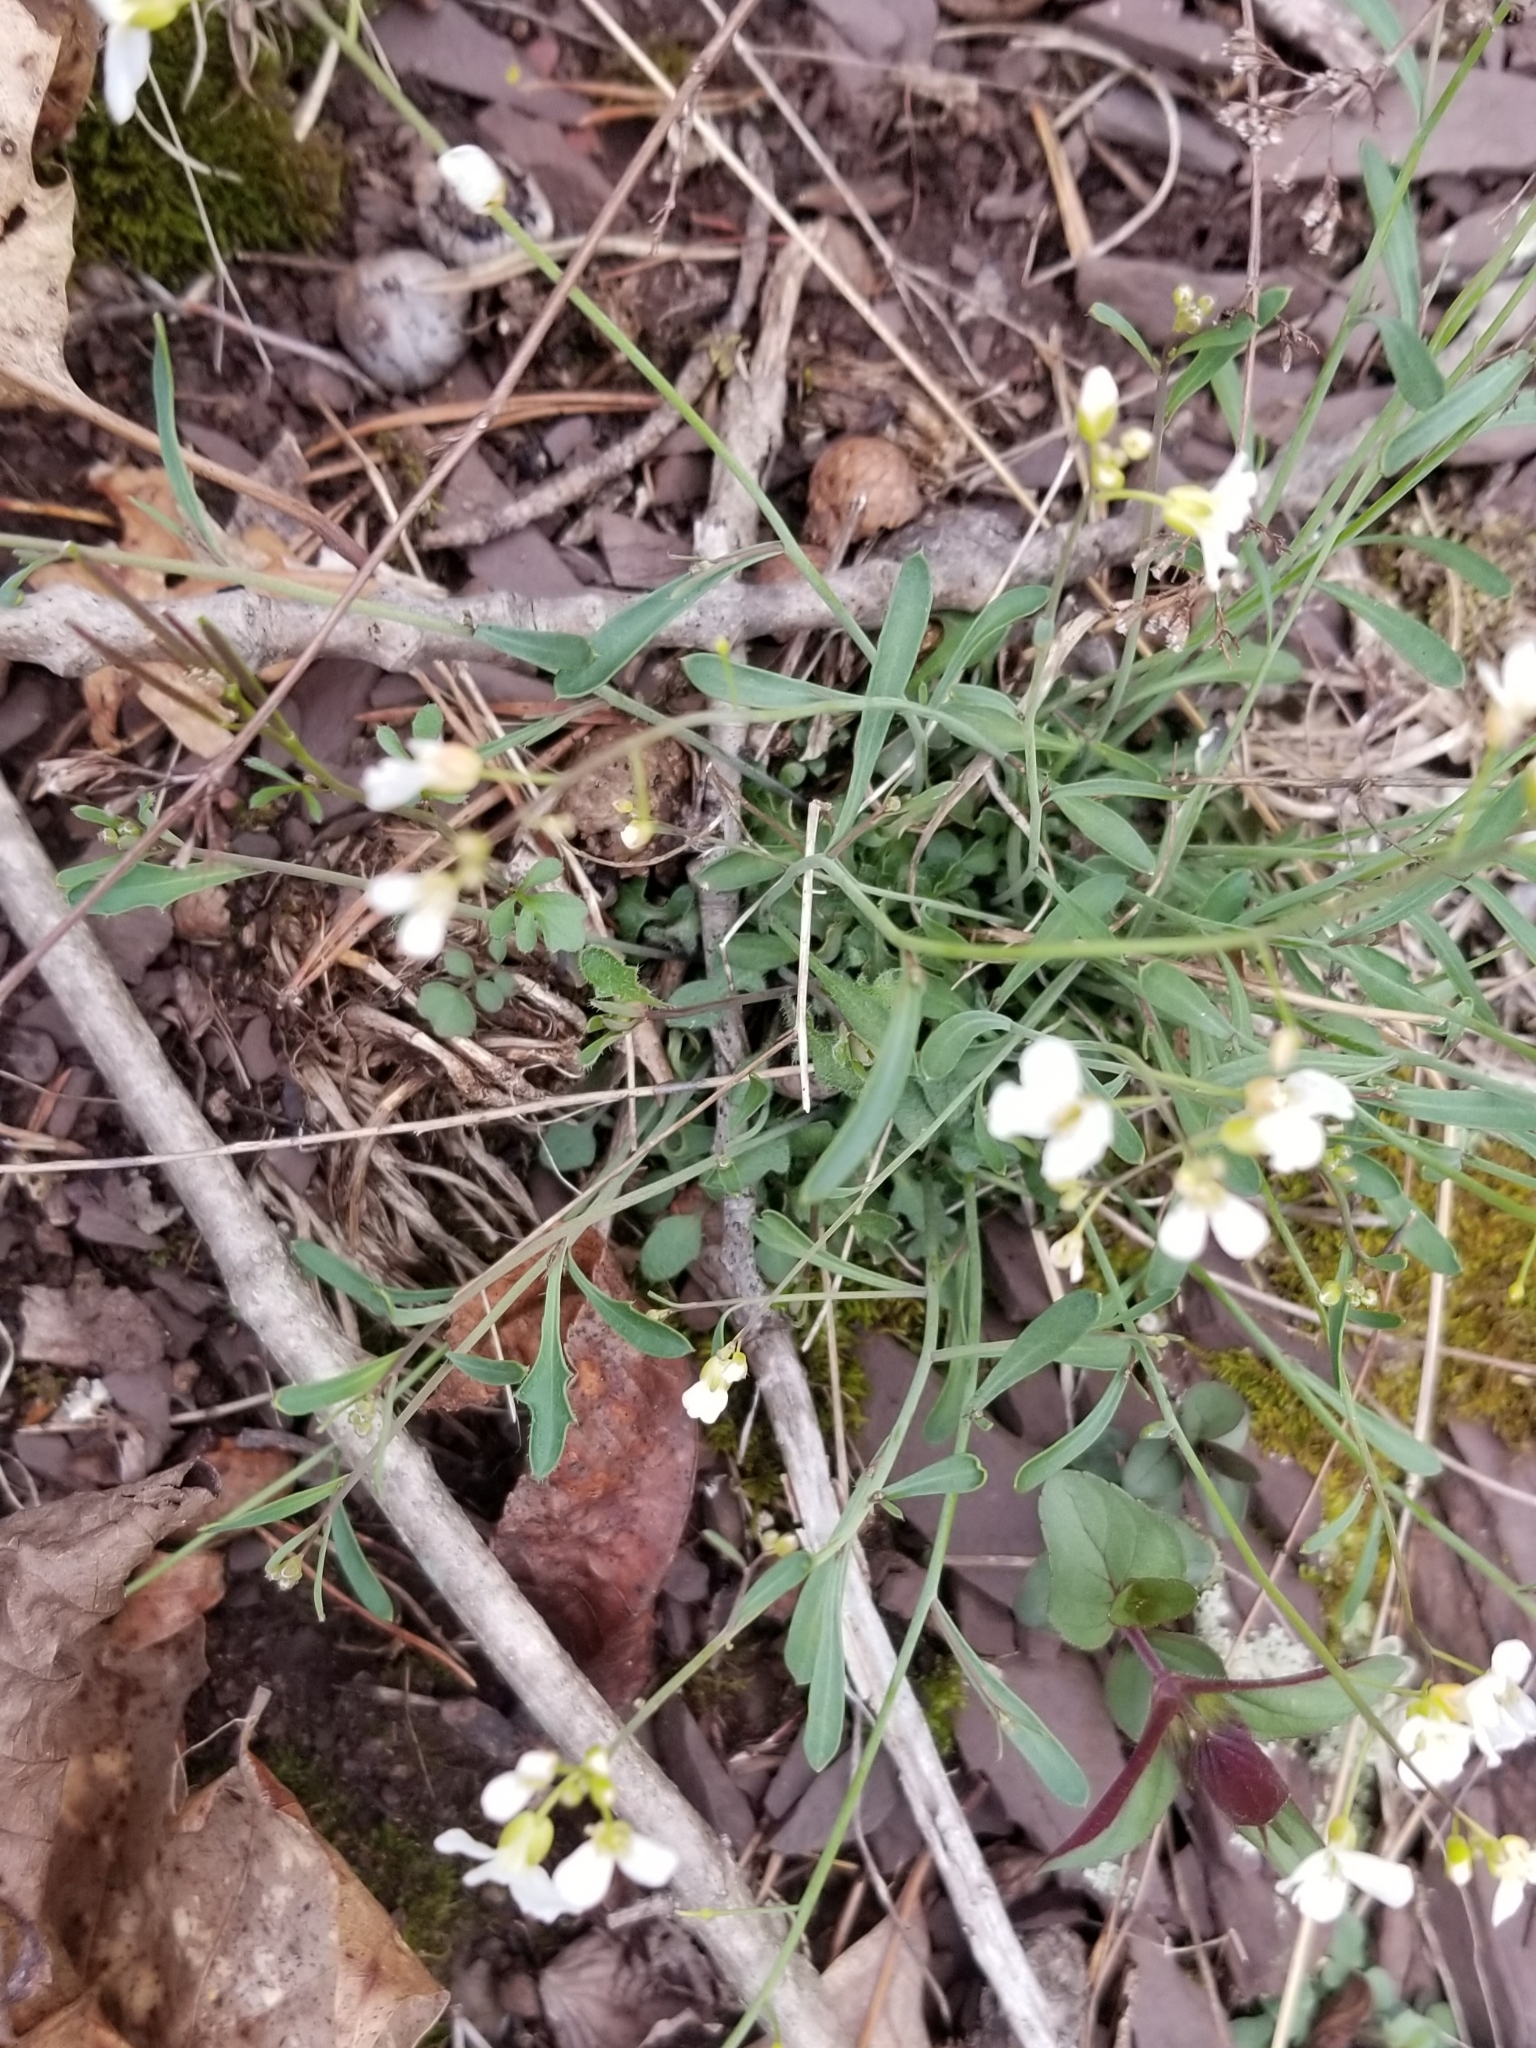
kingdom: Plantae
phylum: Tracheophyta
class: Magnoliopsida
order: Brassicales
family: Brassicaceae
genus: Arabidopsis
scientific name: Arabidopsis lyrata
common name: Lyrate rockcress
